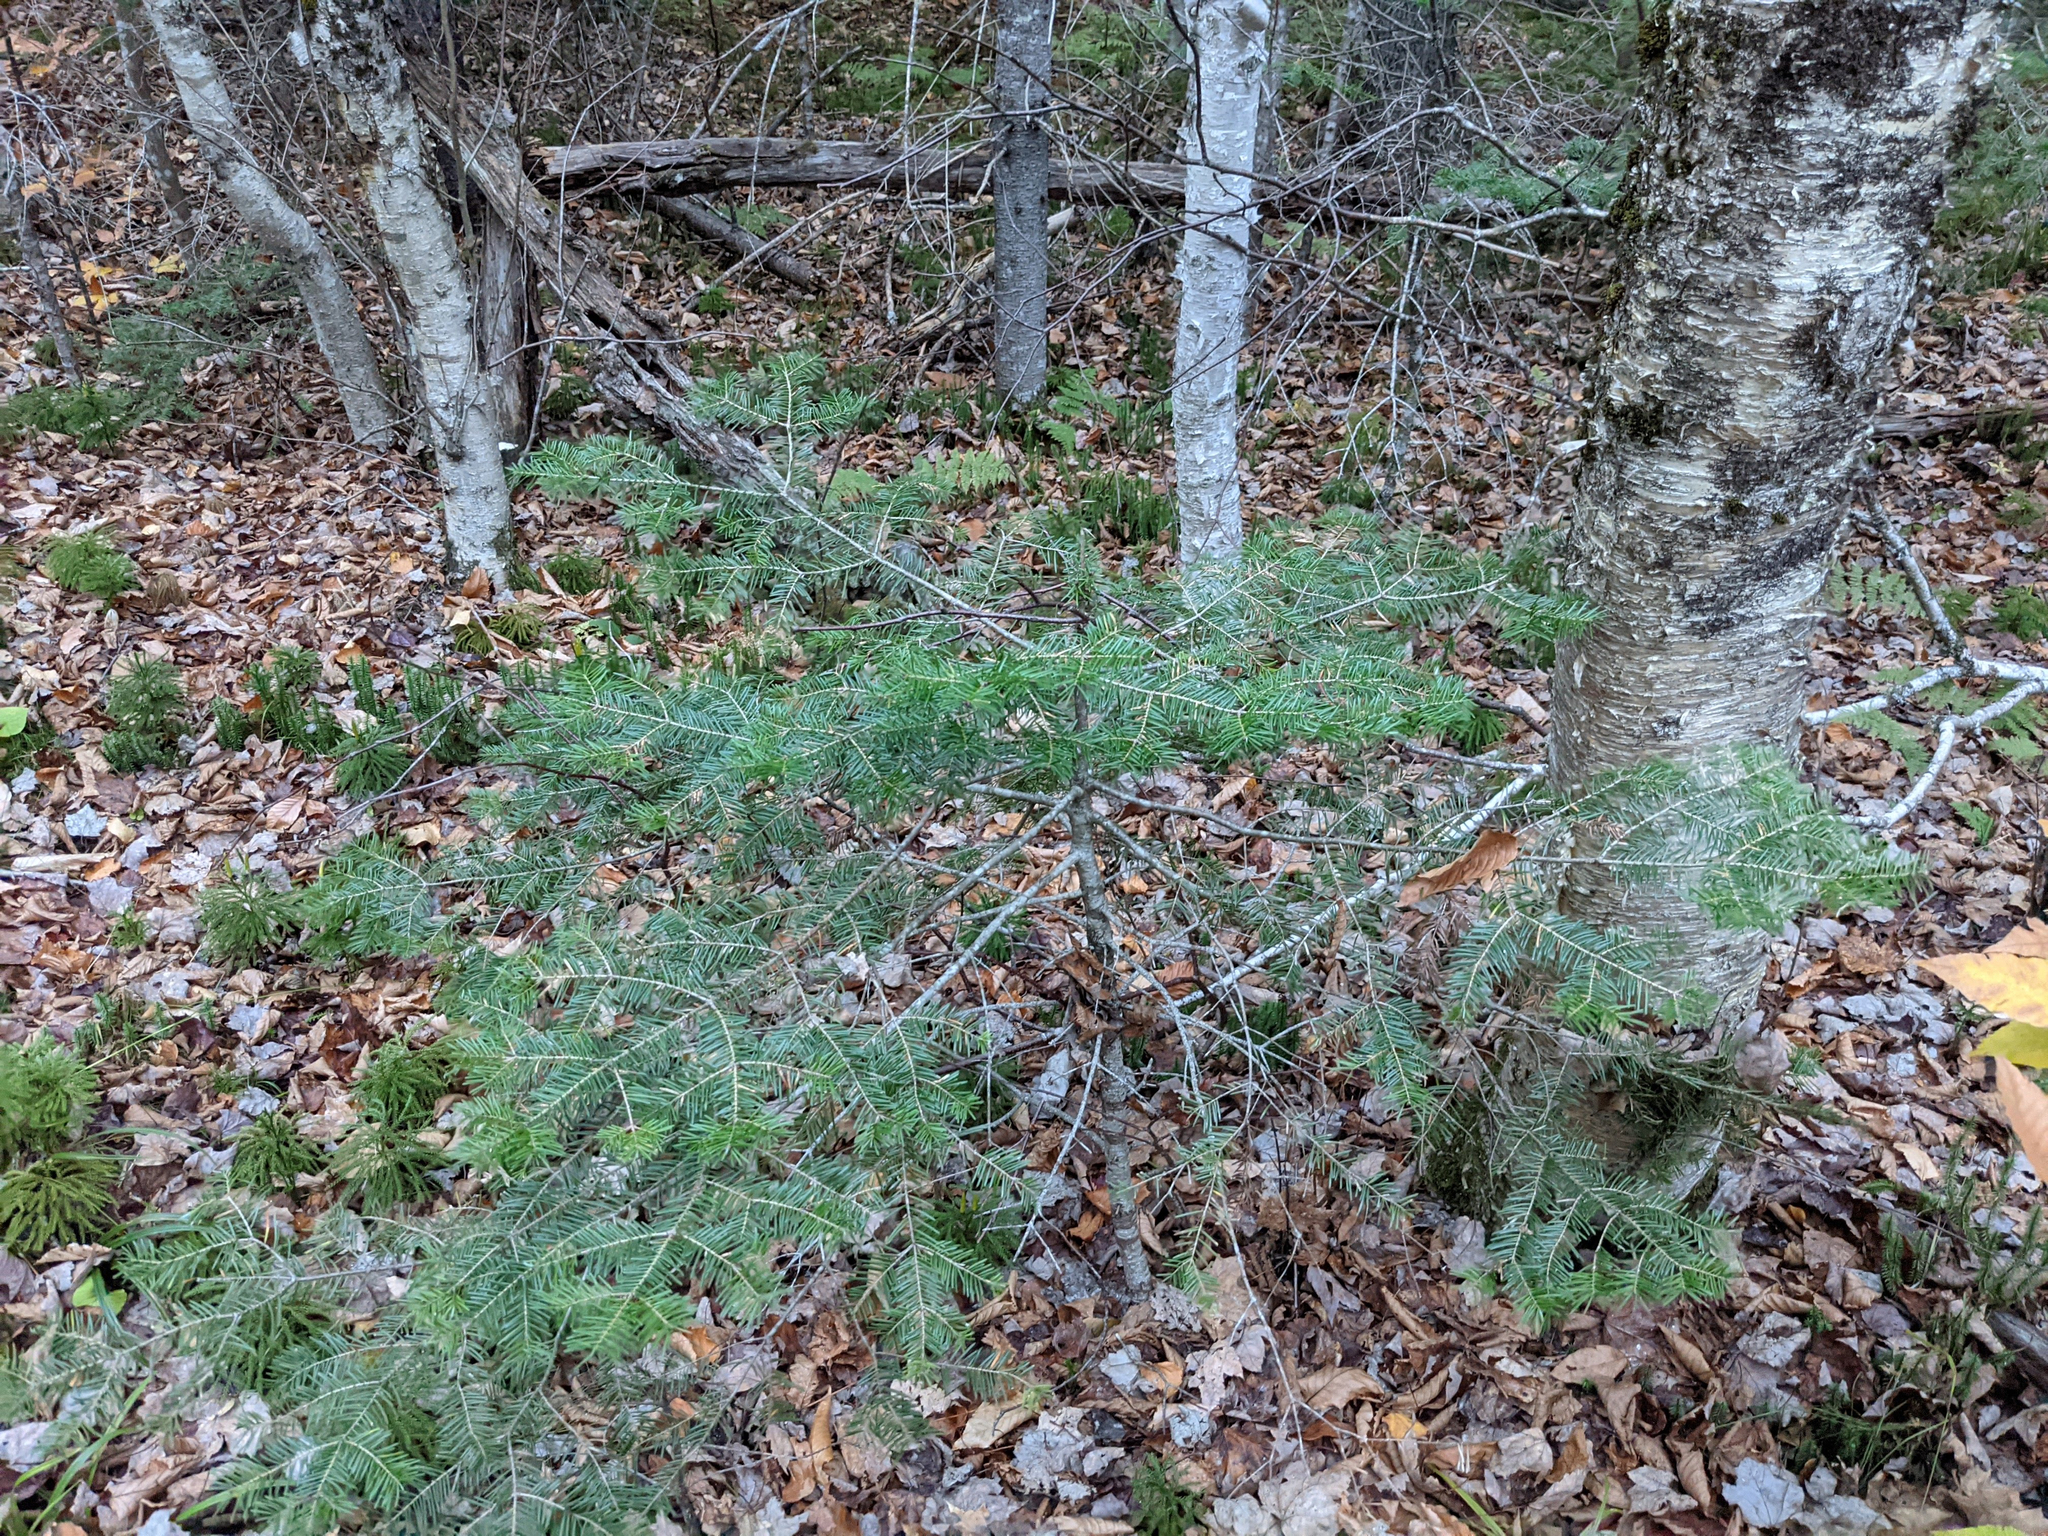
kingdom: Plantae
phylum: Tracheophyta
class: Pinopsida
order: Pinales
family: Pinaceae
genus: Abies
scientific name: Abies balsamea
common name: Balsam fir
